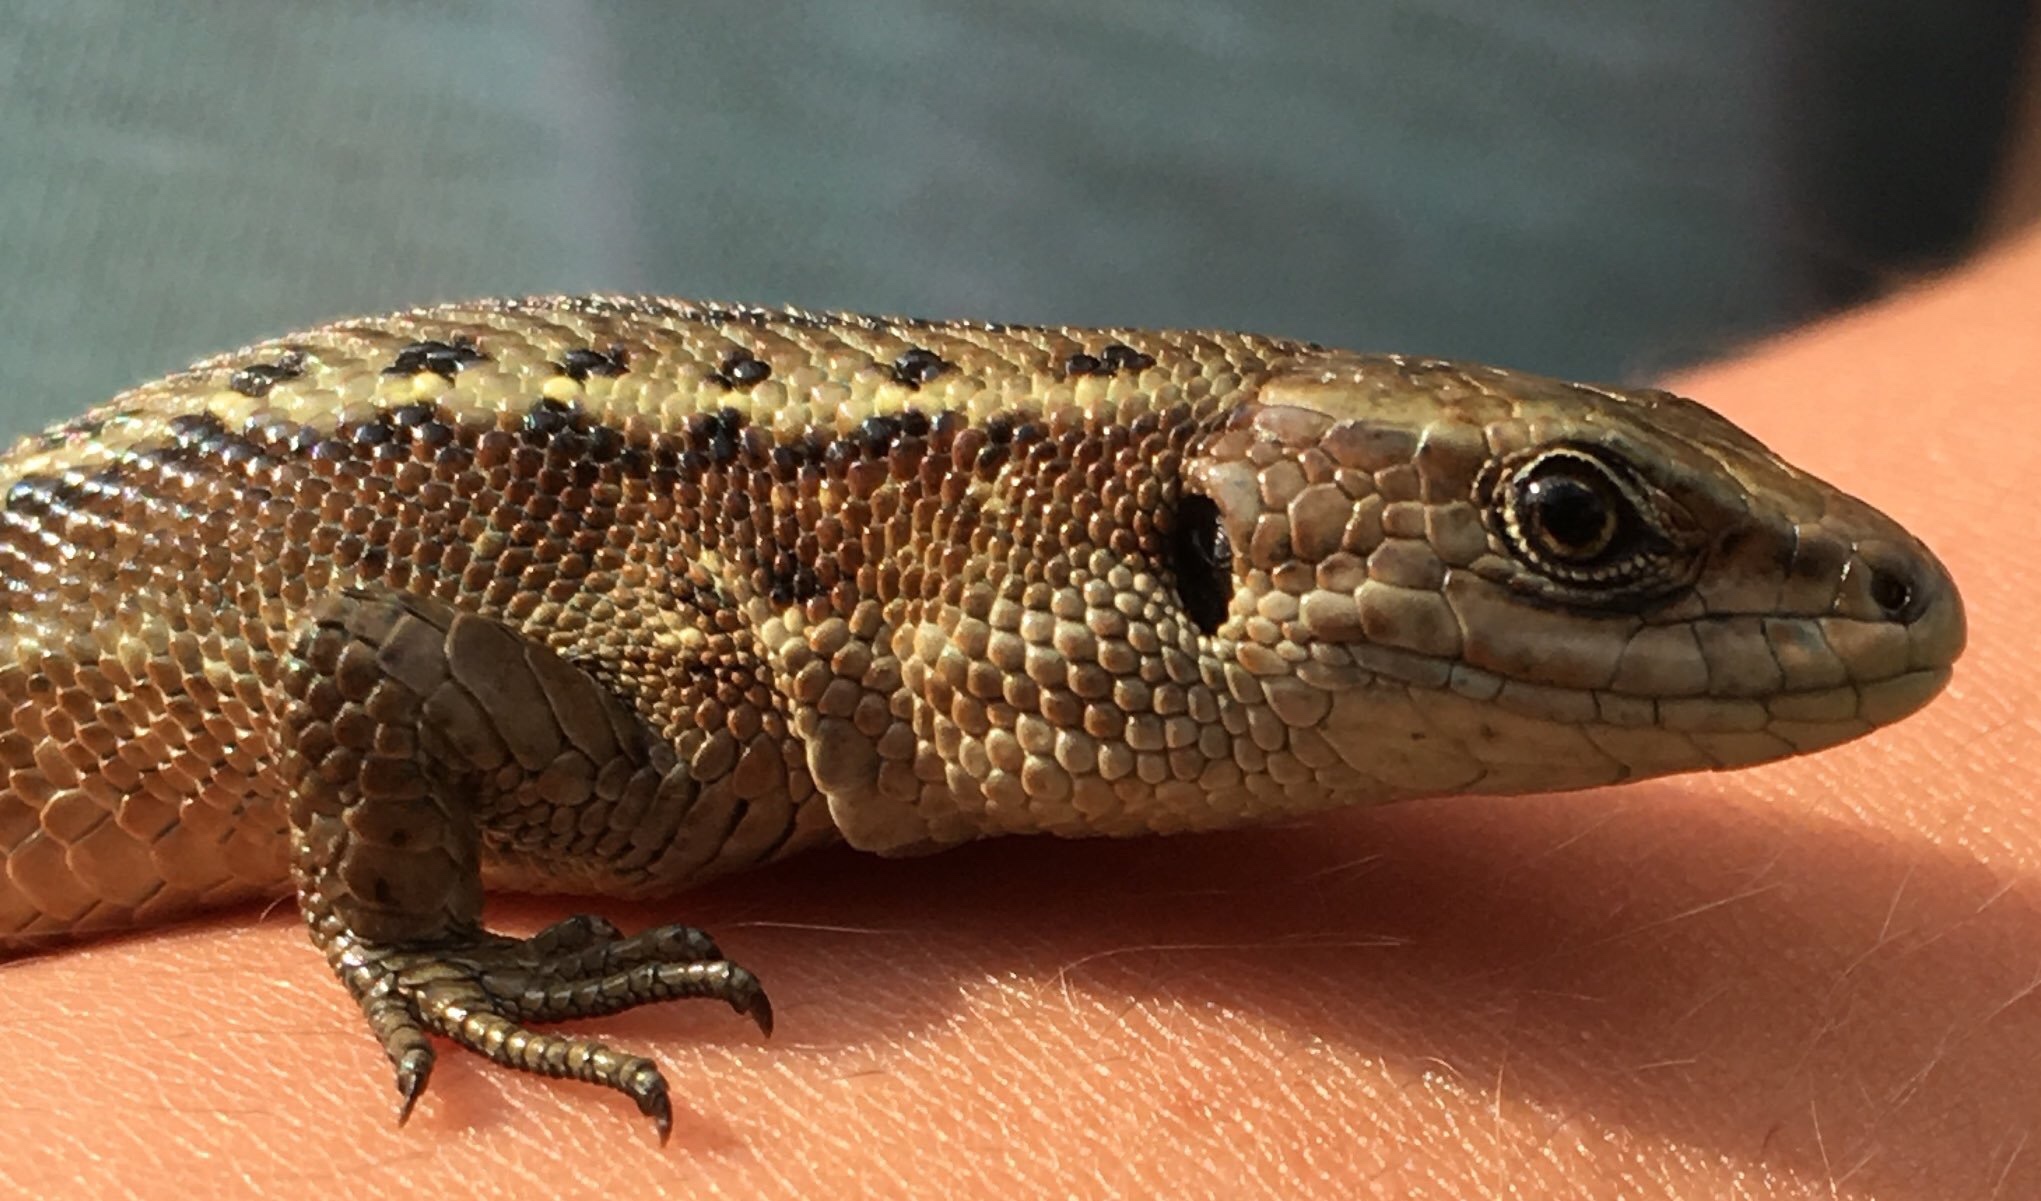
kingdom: Animalia
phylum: Chordata
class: Squamata
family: Lacertidae
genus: Zootoca
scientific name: Zootoca vivipara
